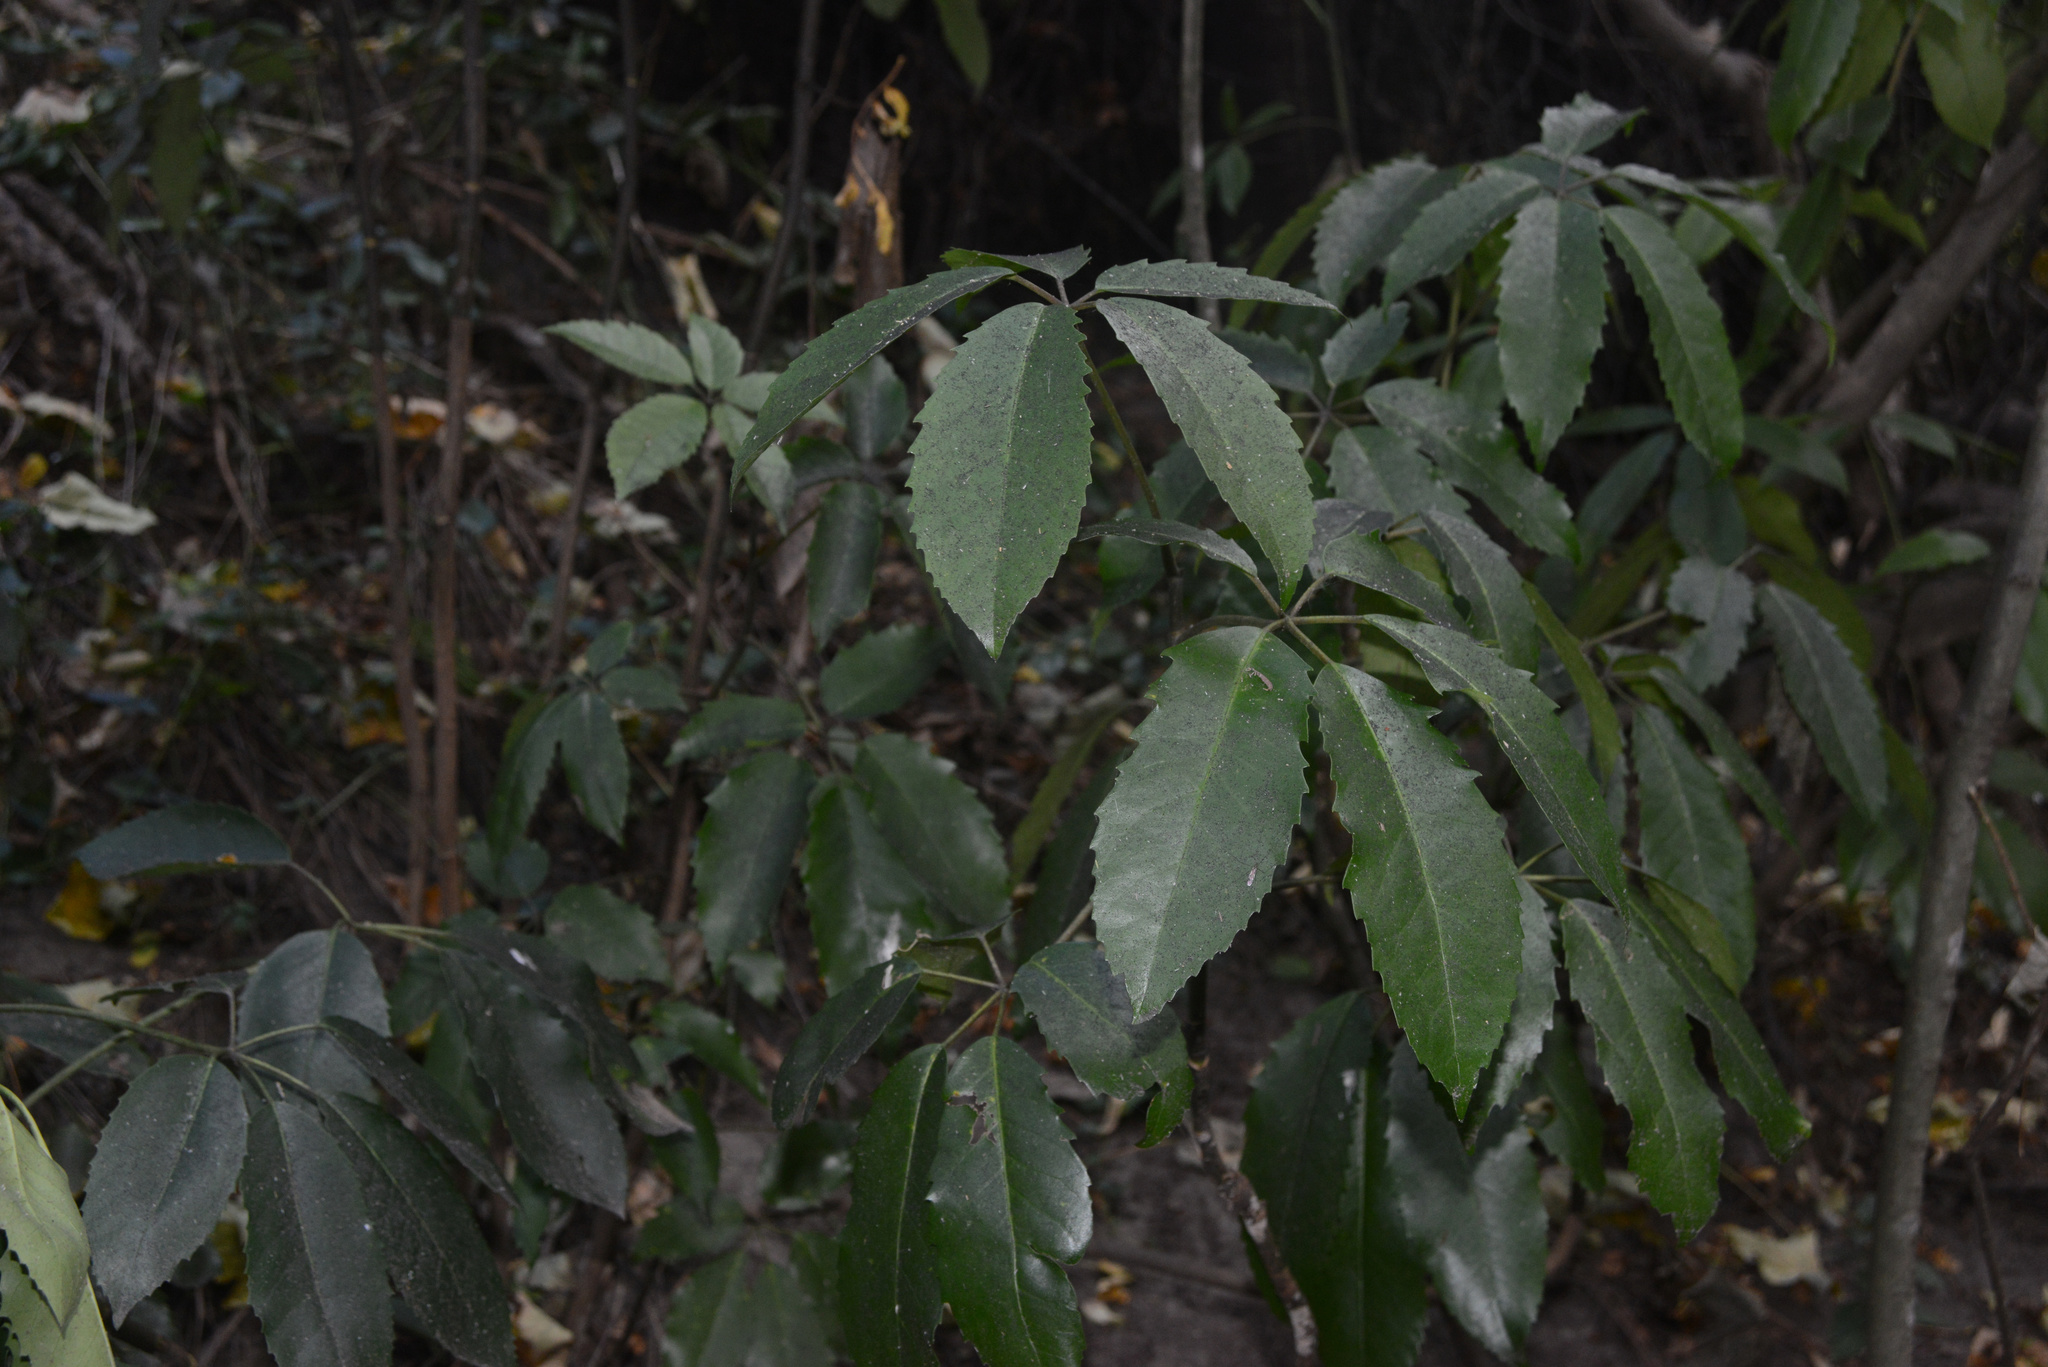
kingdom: Plantae
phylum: Tracheophyta
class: Magnoliopsida
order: Apiales
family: Araliaceae
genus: Neopanax
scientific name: Neopanax arboreus
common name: Five-fingers
